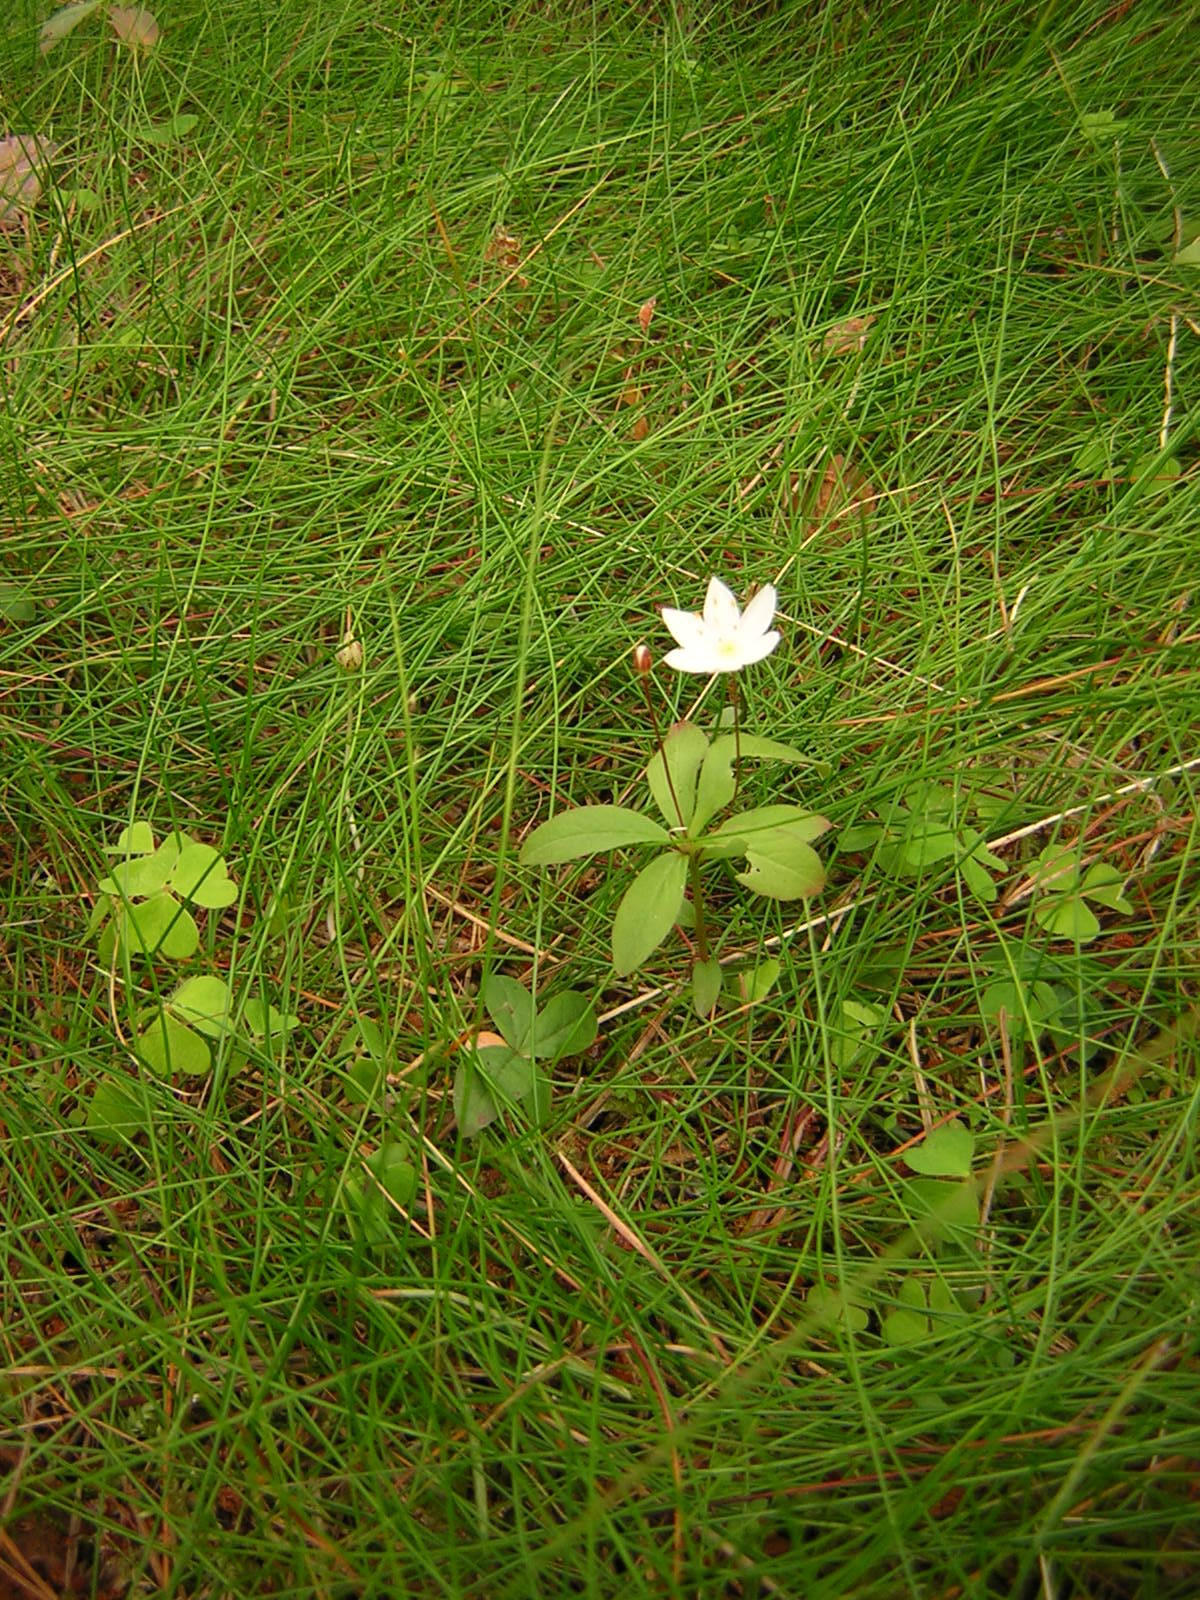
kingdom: Plantae
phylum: Tracheophyta
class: Magnoliopsida
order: Ericales
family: Primulaceae
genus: Lysimachia
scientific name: Lysimachia europaea
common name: Arctic starflower
